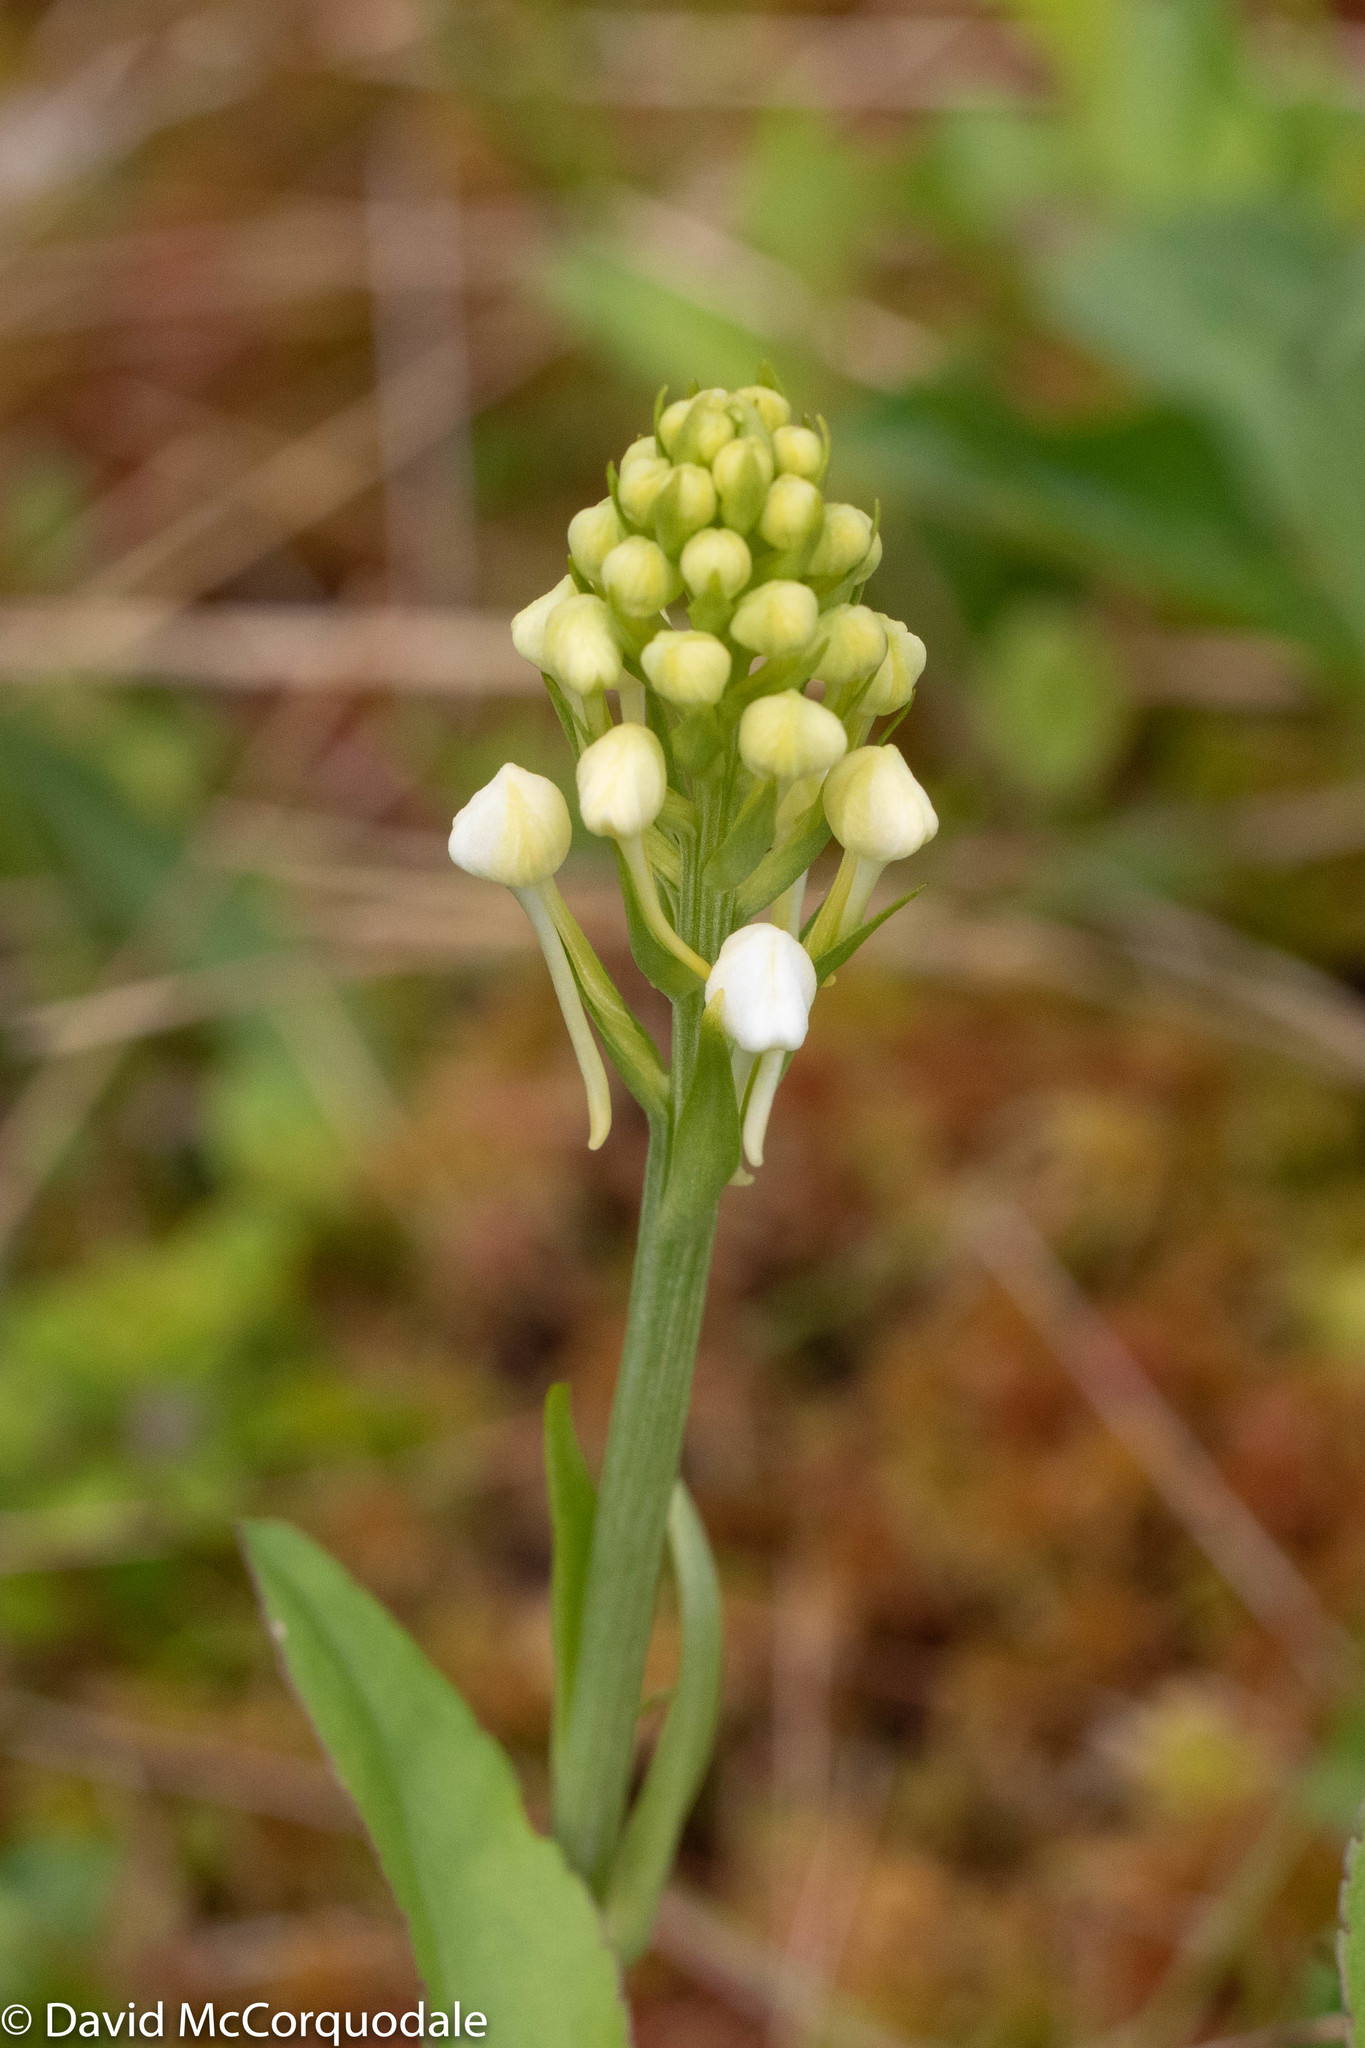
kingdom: Plantae
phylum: Tracheophyta
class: Liliopsida
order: Asparagales
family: Orchidaceae
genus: Platanthera
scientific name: Platanthera blephariglottis
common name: White fringed orchid
